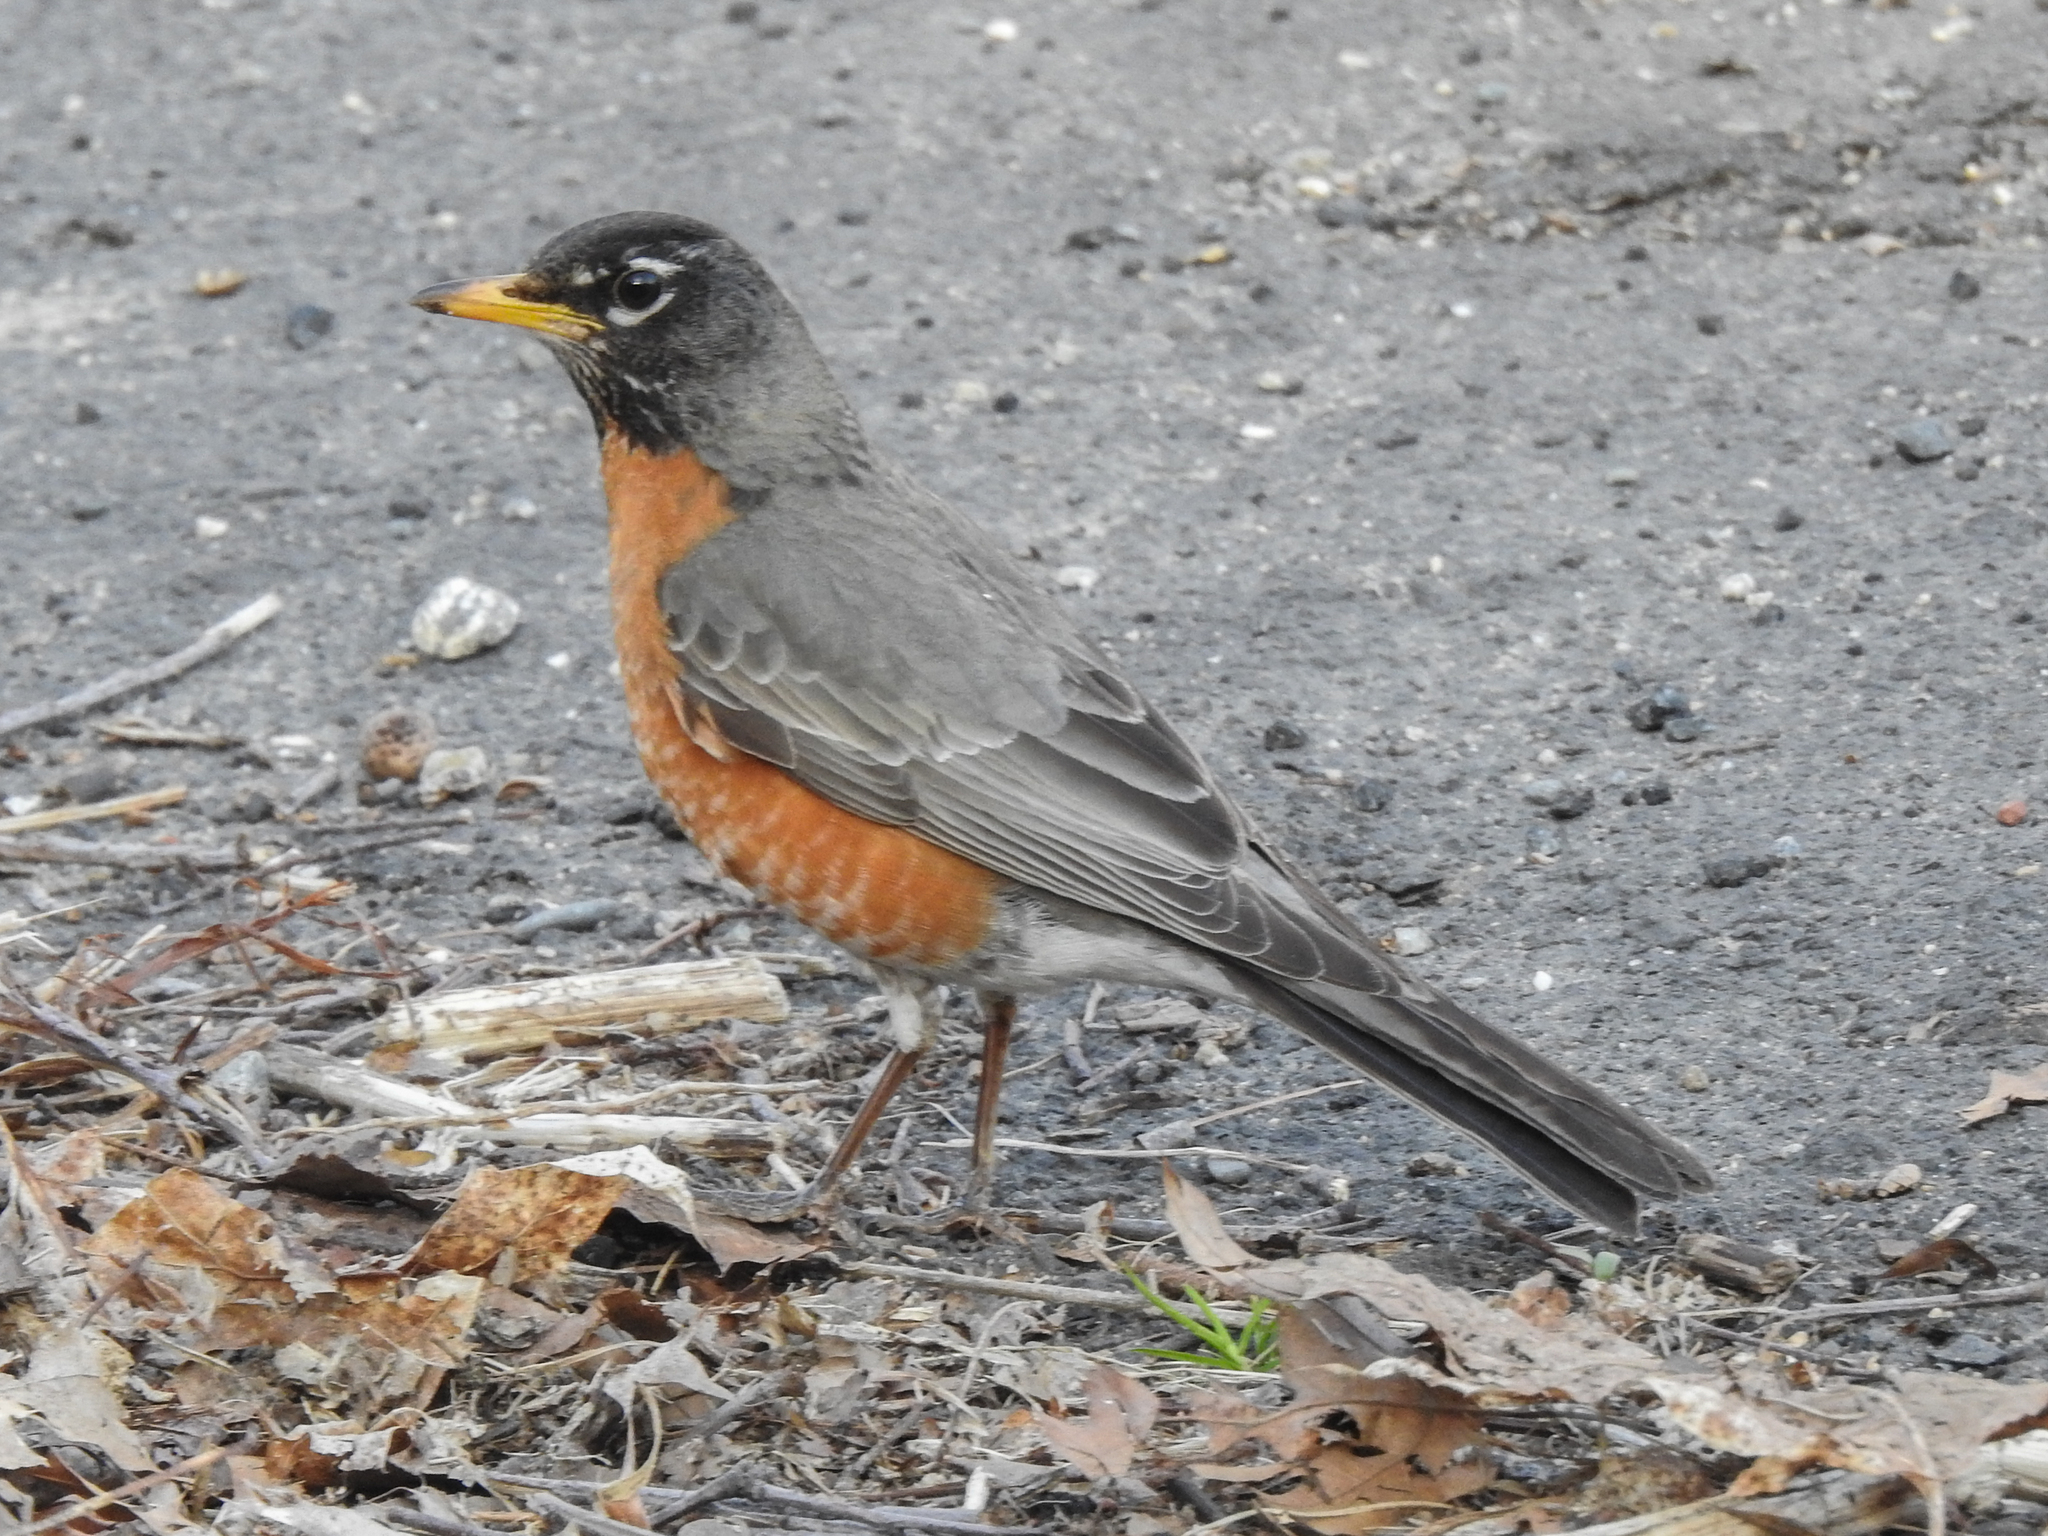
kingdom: Animalia
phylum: Chordata
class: Aves
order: Passeriformes
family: Turdidae
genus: Turdus
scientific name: Turdus migratorius
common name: American robin
